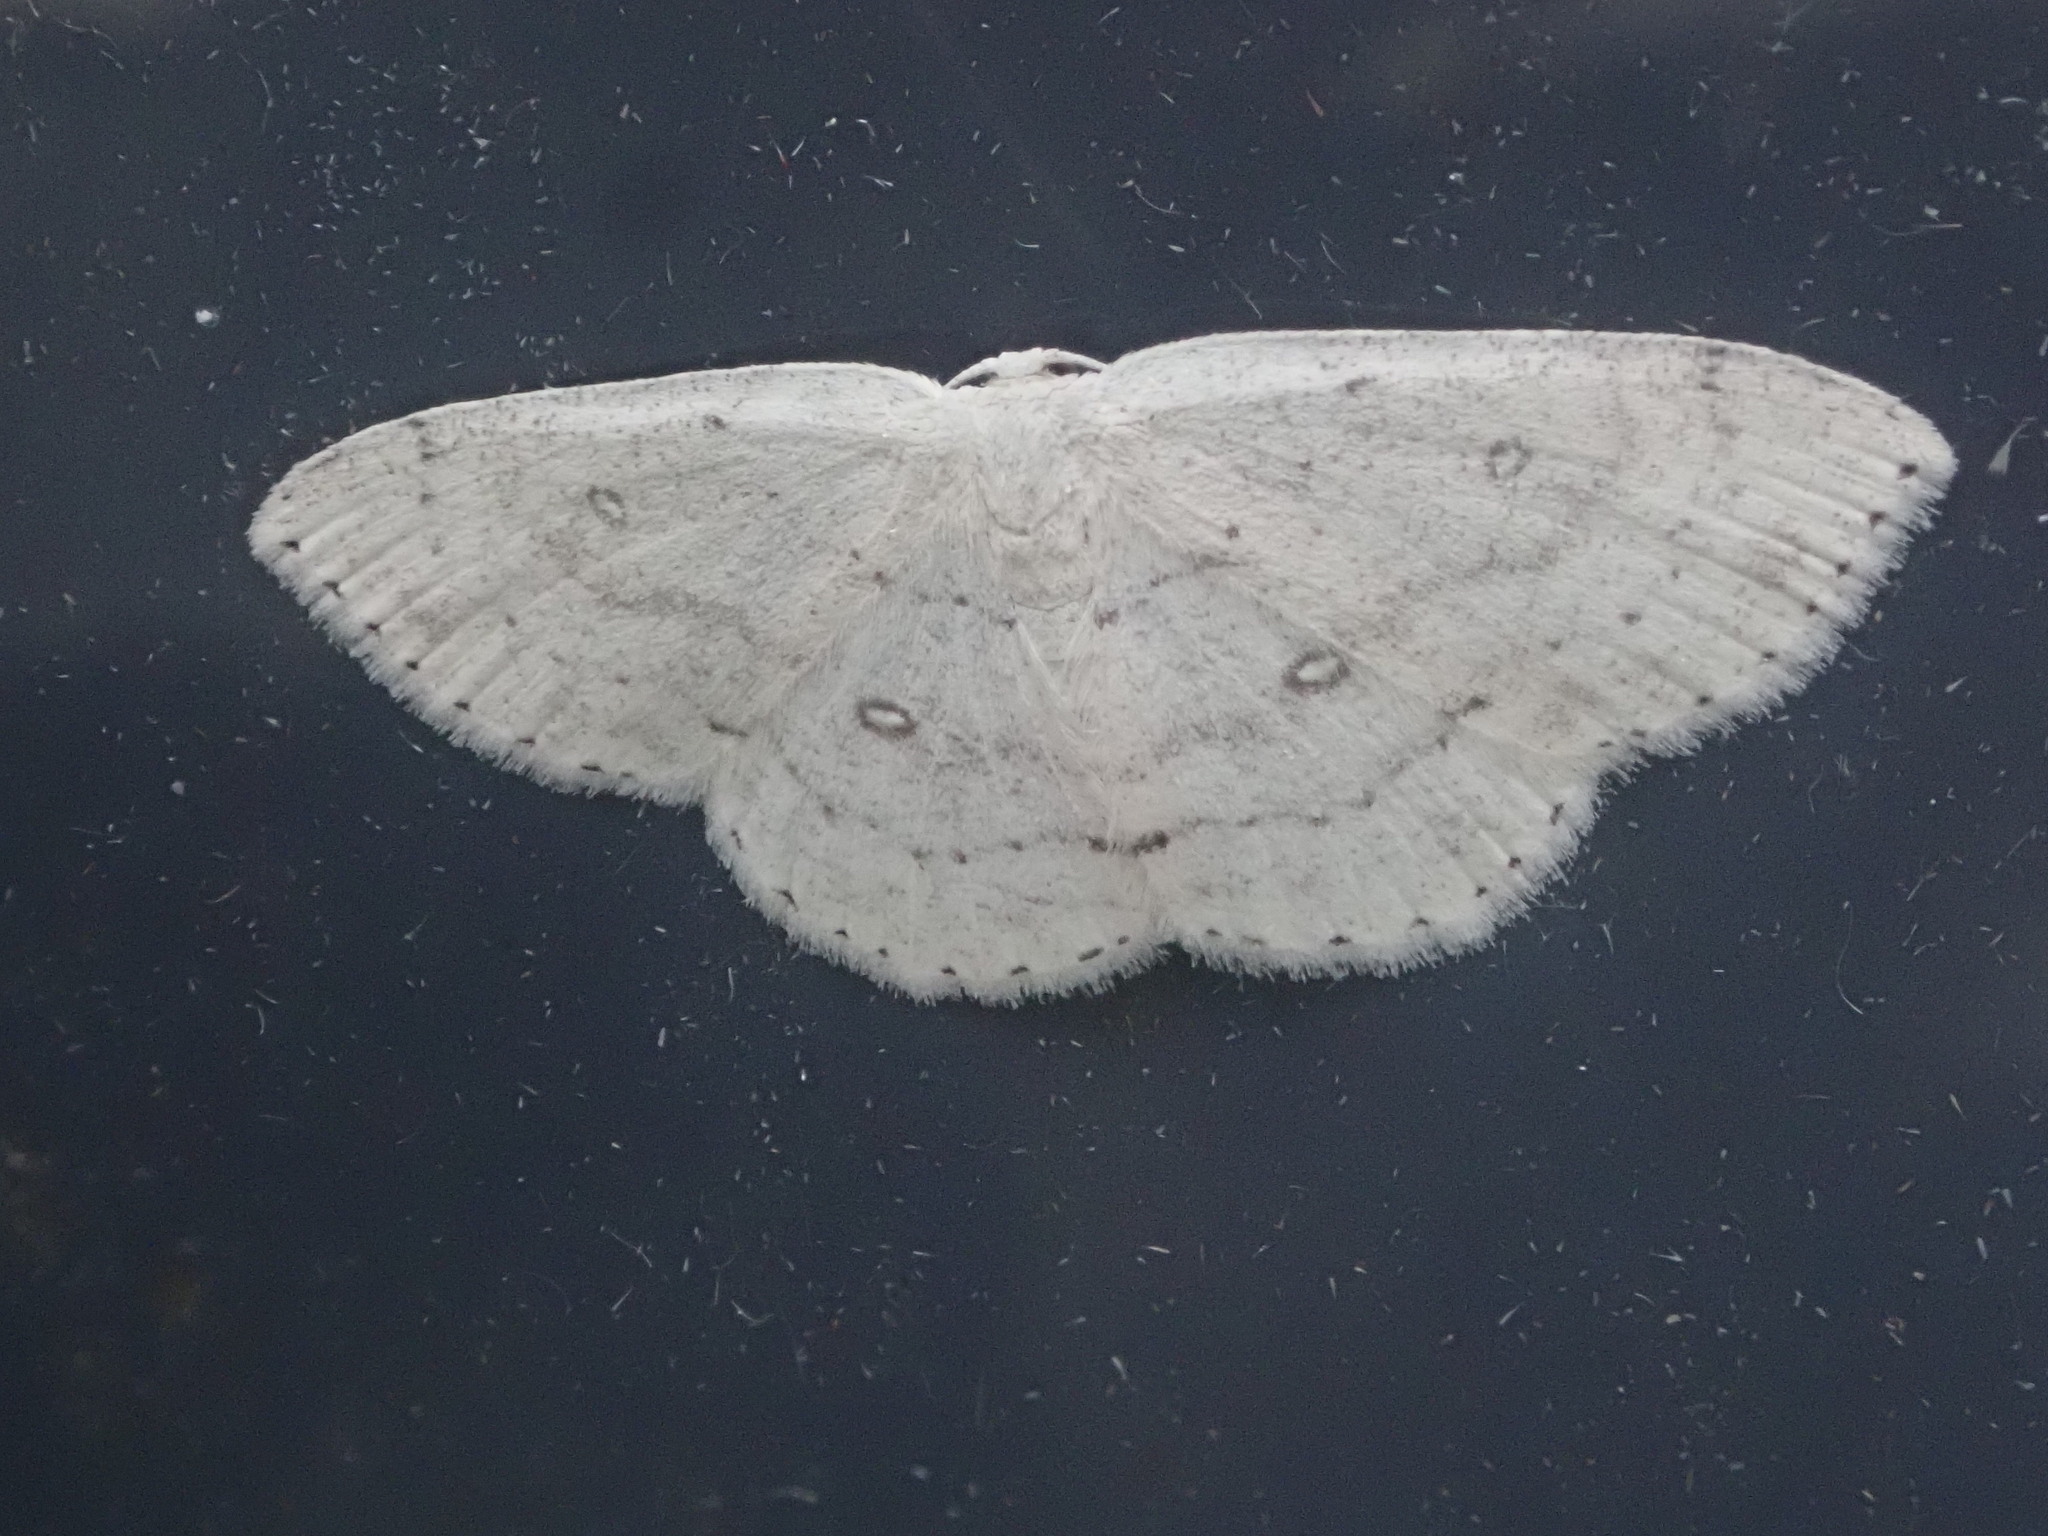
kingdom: Animalia
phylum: Arthropoda
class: Insecta
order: Lepidoptera
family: Geometridae
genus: Cyclophora
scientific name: Cyclophora pendulinaria
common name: Sweet fern geometer
